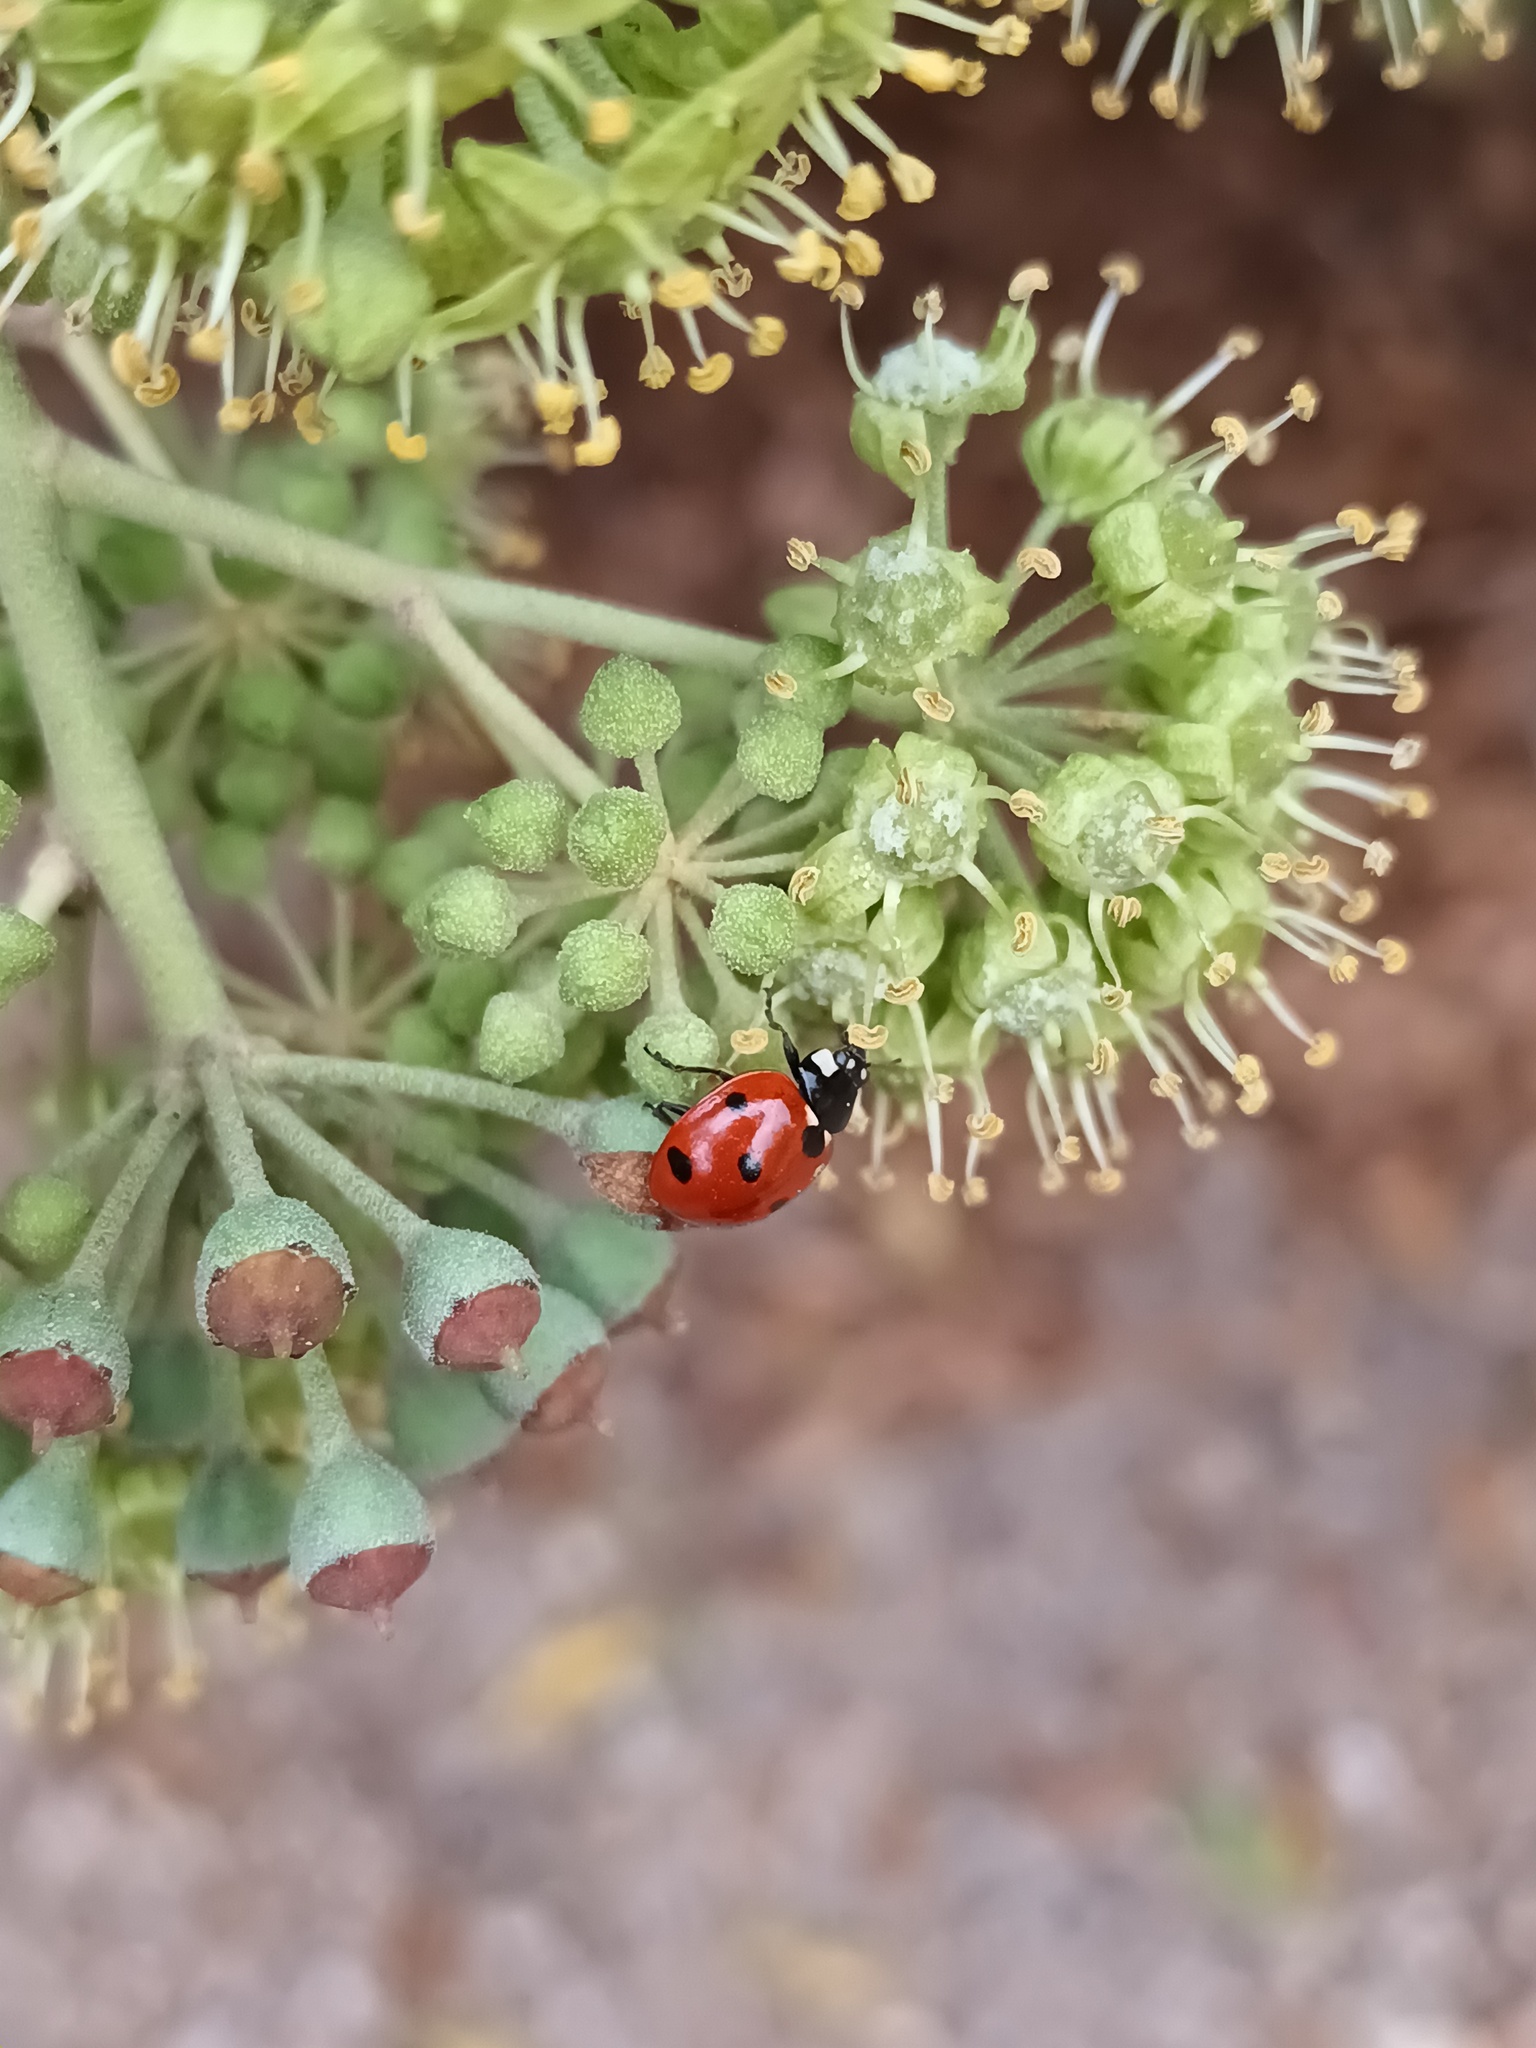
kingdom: Animalia
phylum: Arthropoda
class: Insecta
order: Coleoptera
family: Coccinellidae
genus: Coccinella
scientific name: Coccinella septempunctata
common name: Sevenspotted lady beetle
